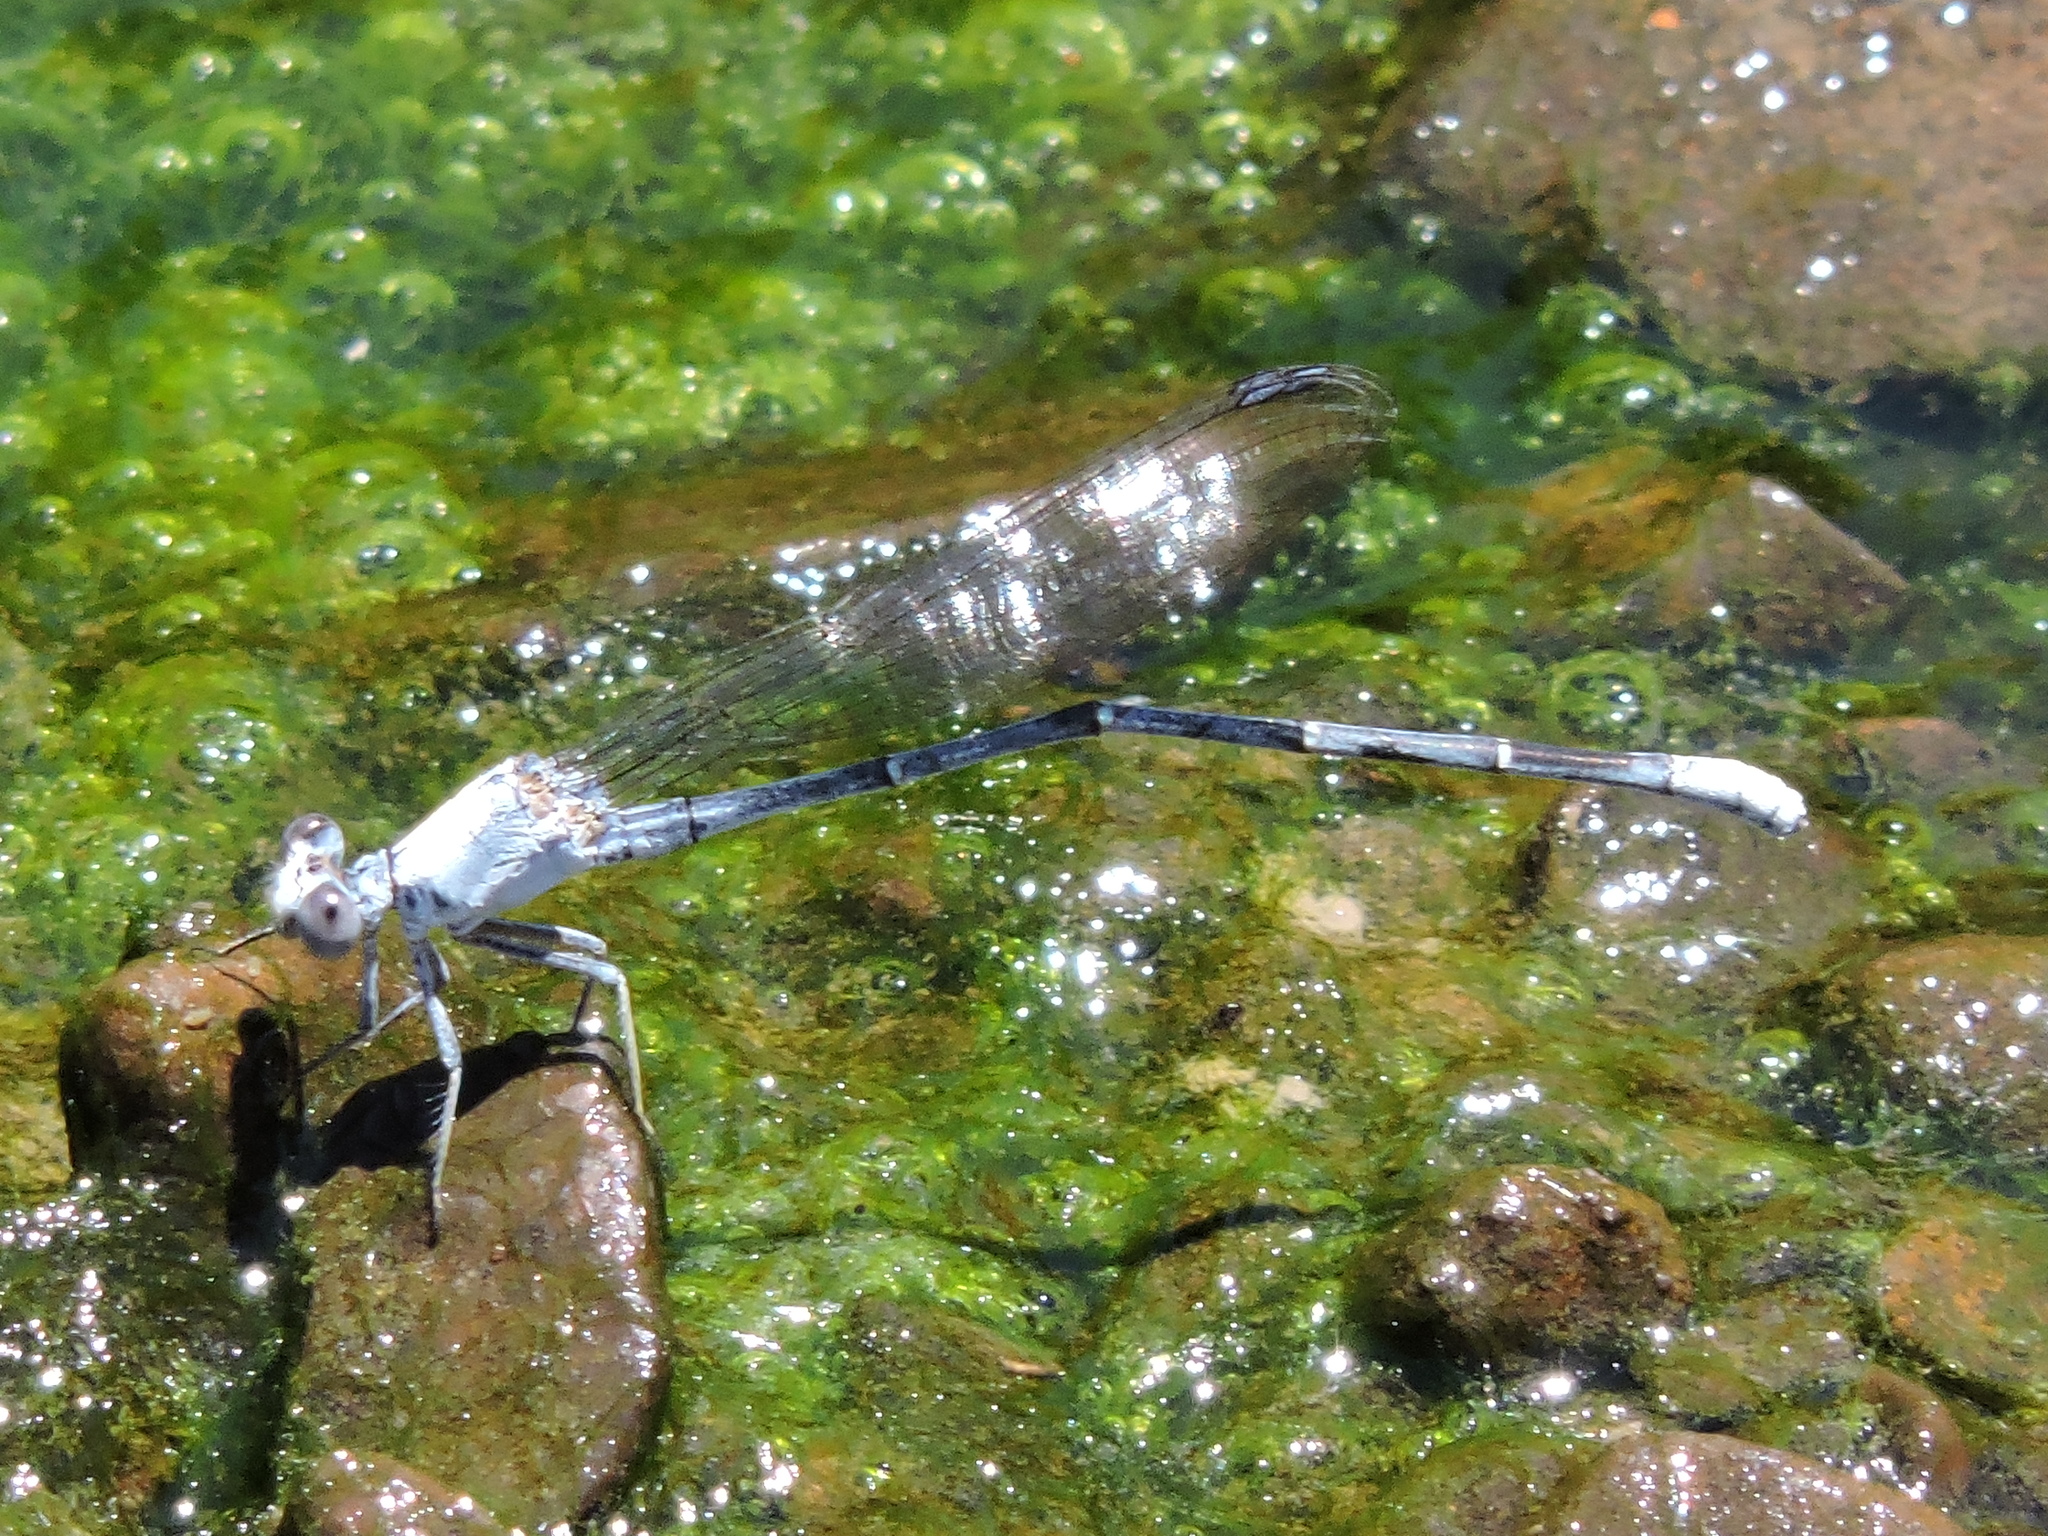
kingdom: Animalia
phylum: Arthropoda
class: Insecta
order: Odonata
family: Coenagrionidae
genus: Argia
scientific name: Argia moesta
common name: Powdered dancer
